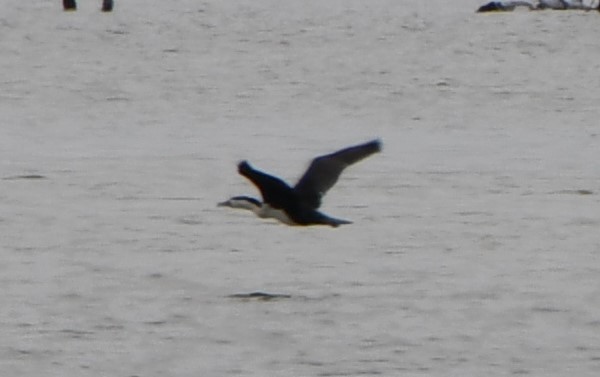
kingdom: Animalia
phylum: Chordata
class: Aves
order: Suliformes
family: Phalacrocoracidae
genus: Phalacrocorax
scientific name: Phalacrocorax varius
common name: Pied cormorant
